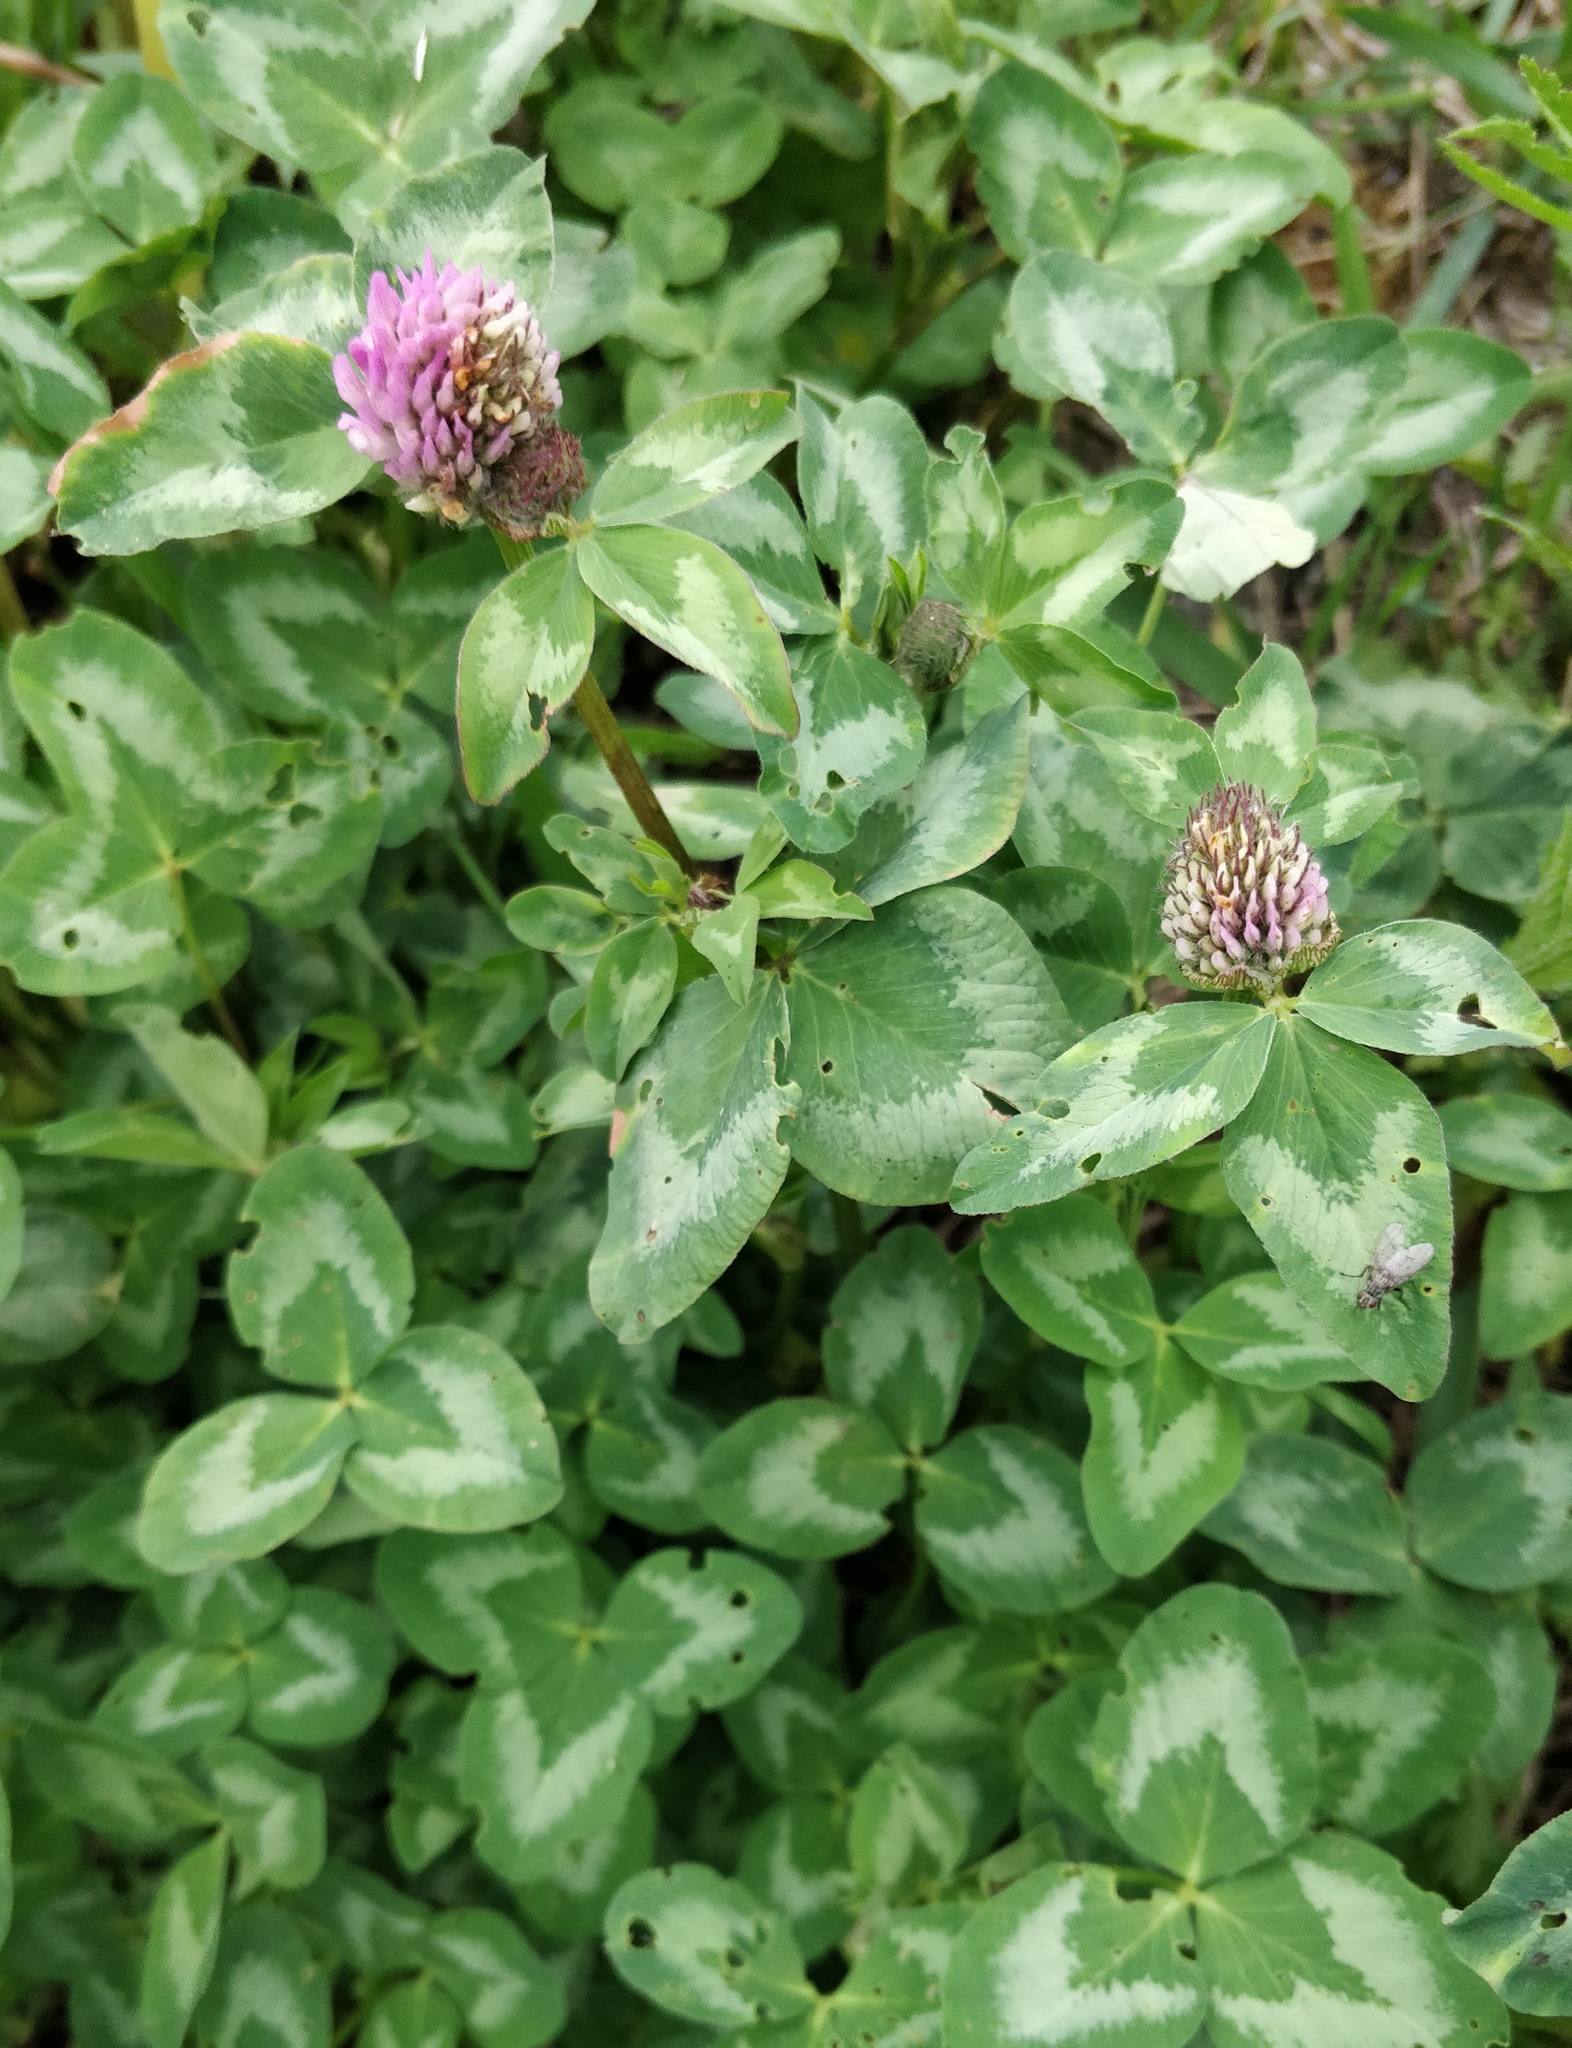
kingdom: Plantae
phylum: Tracheophyta
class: Magnoliopsida
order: Fabales
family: Fabaceae
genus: Trifolium
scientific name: Trifolium pratense
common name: Red clover
